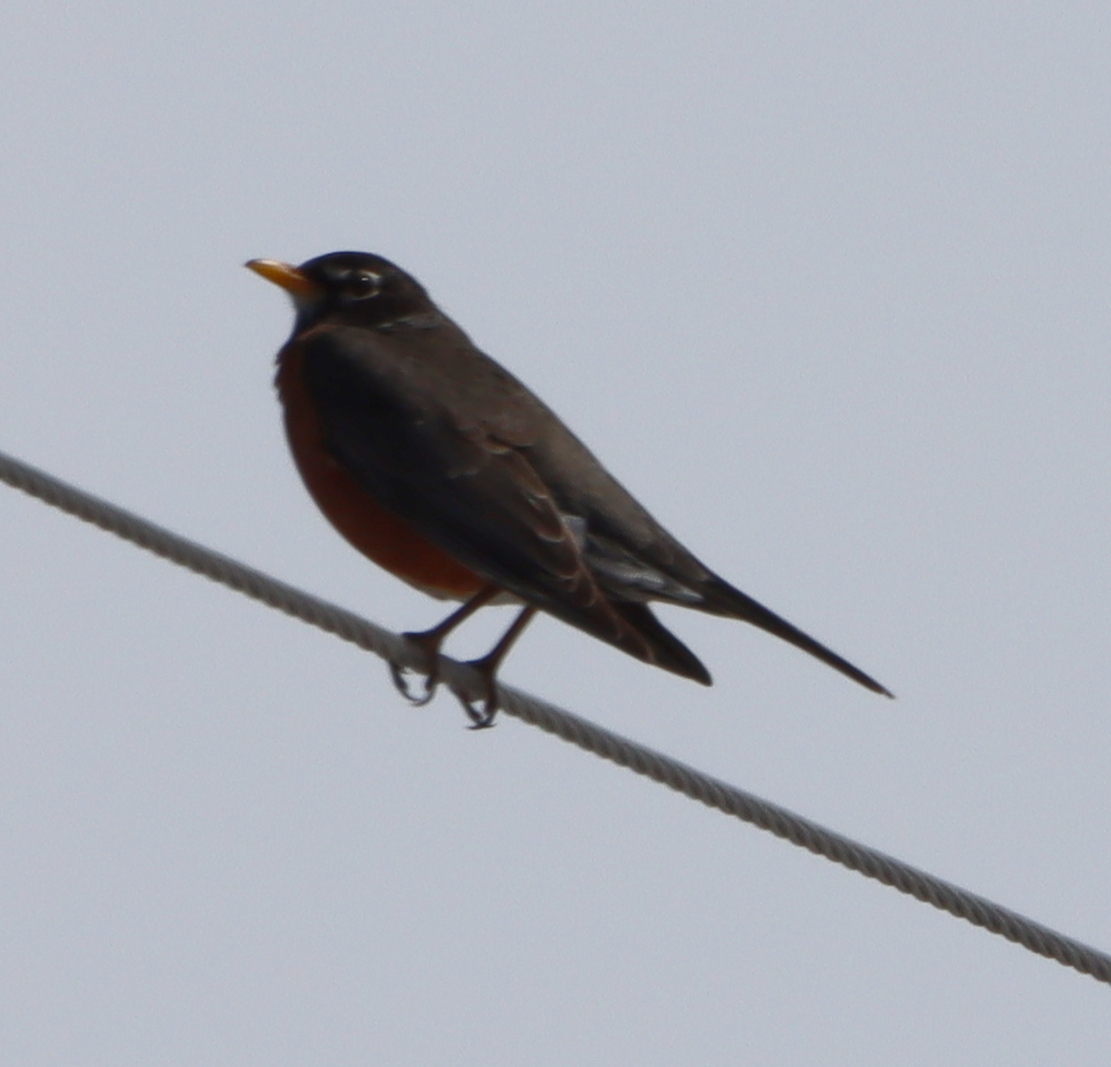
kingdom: Animalia
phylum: Chordata
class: Aves
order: Passeriformes
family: Turdidae
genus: Turdus
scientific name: Turdus migratorius
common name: American robin
